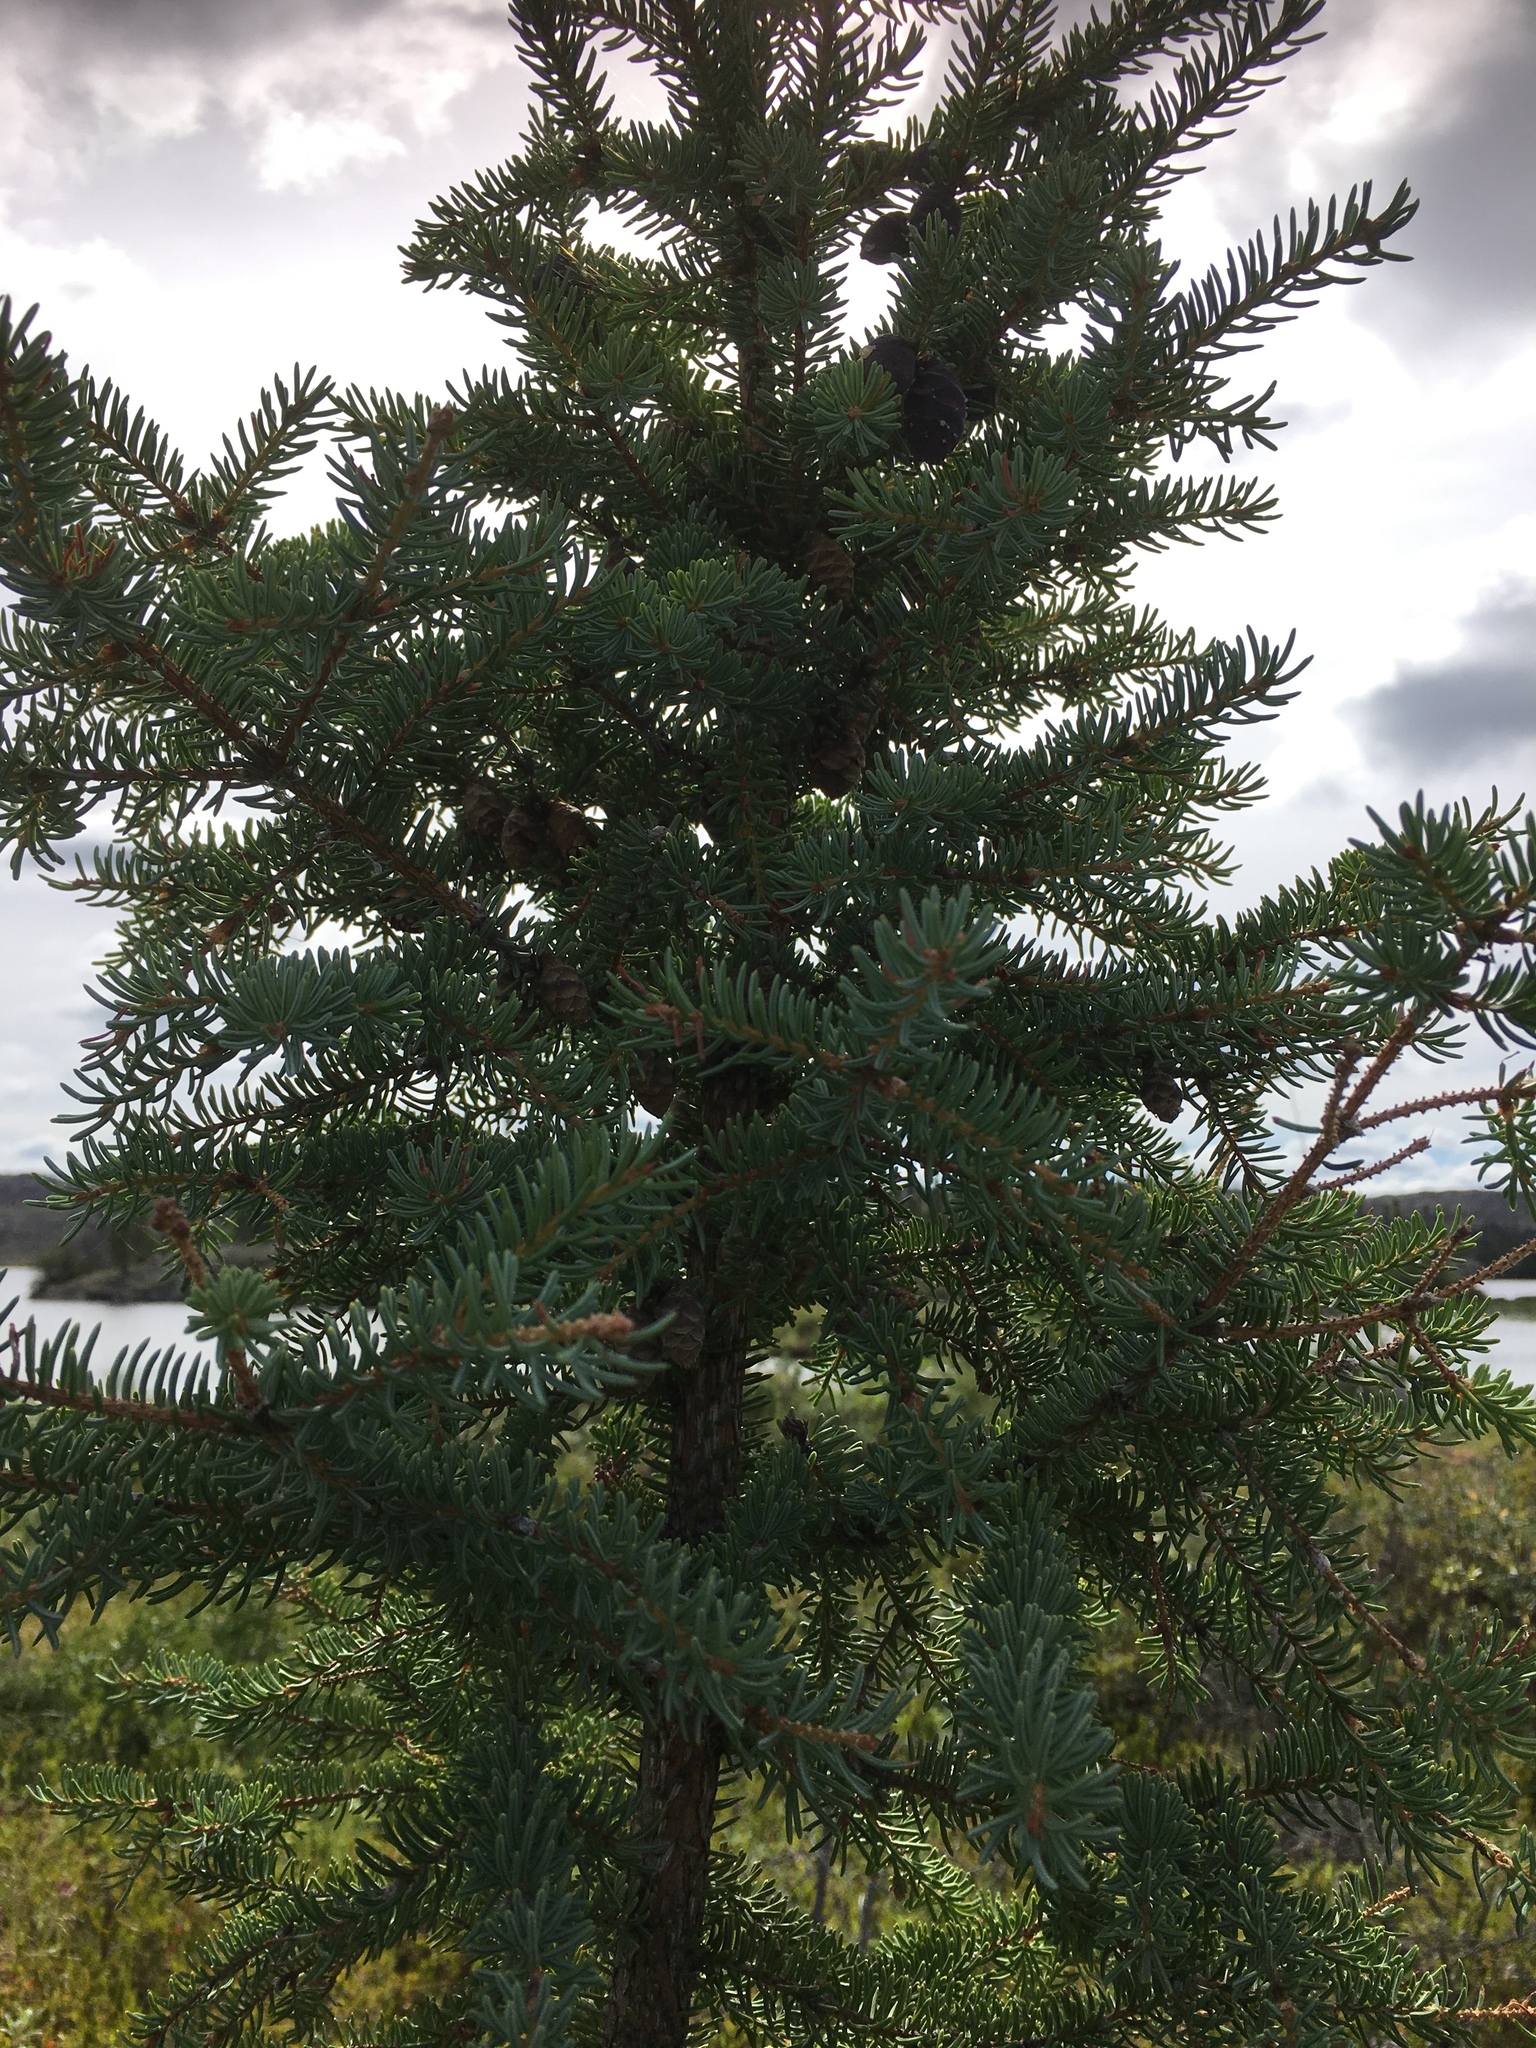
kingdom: Plantae
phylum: Tracheophyta
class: Pinopsida
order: Pinales
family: Pinaceae
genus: Picea
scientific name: Picea mariana
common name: Black spruce
